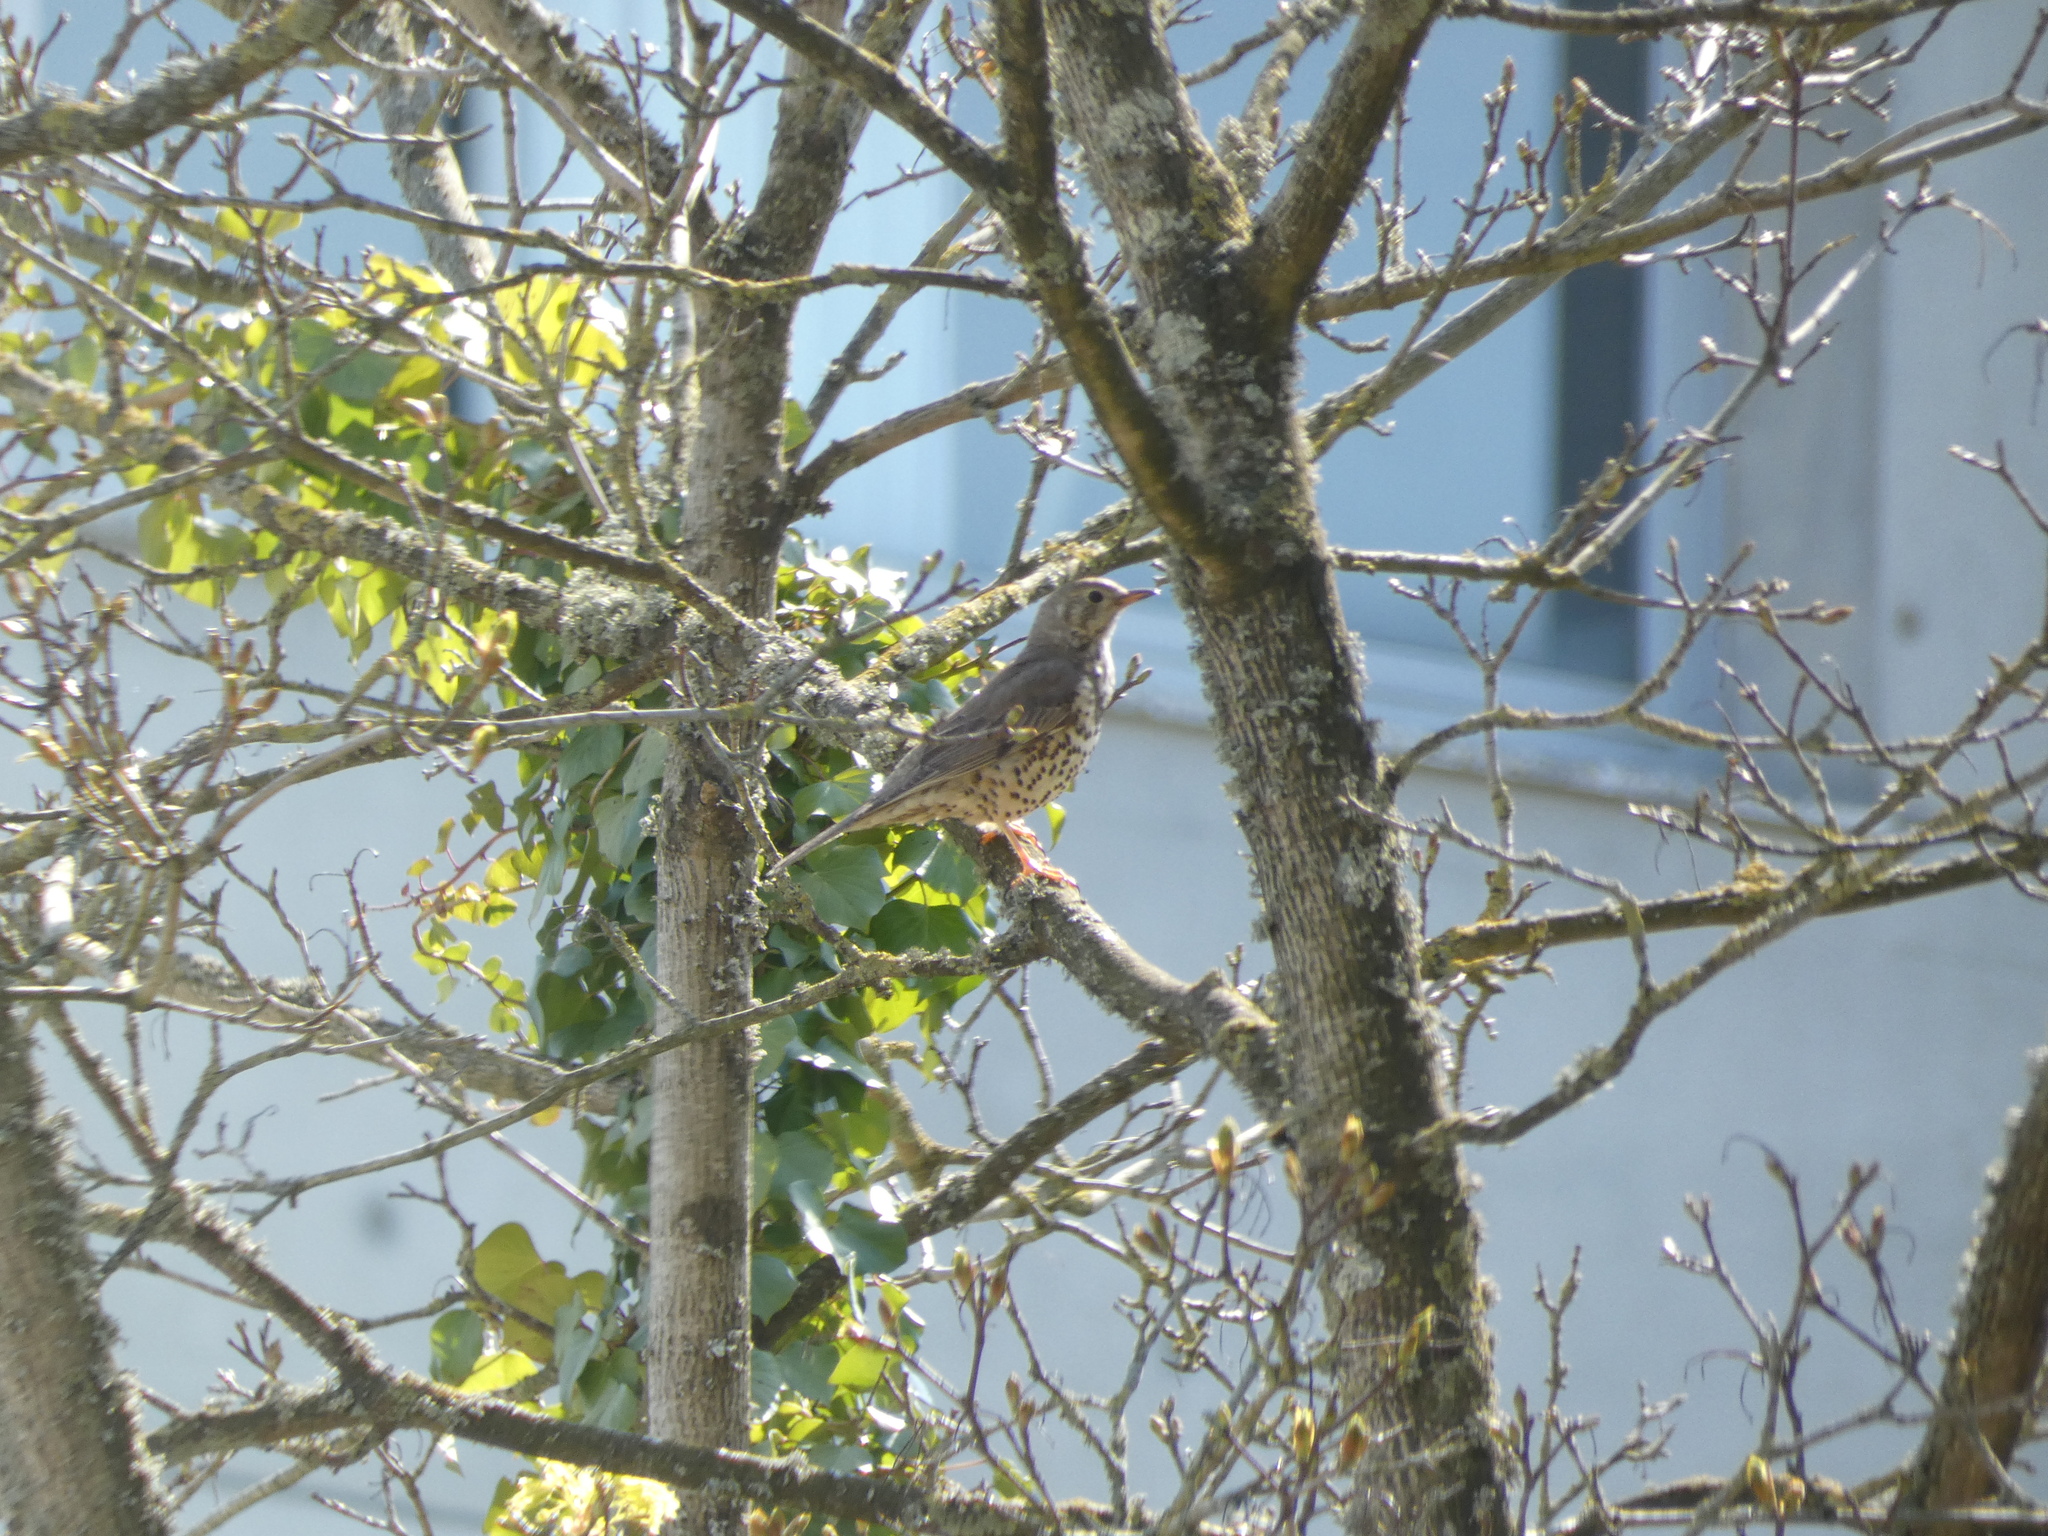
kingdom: Animalia
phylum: Chordata
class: Aves
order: Passeriformes
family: Turdidae
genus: Turdus
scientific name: Turdus viscivorus
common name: Mistle thrush
